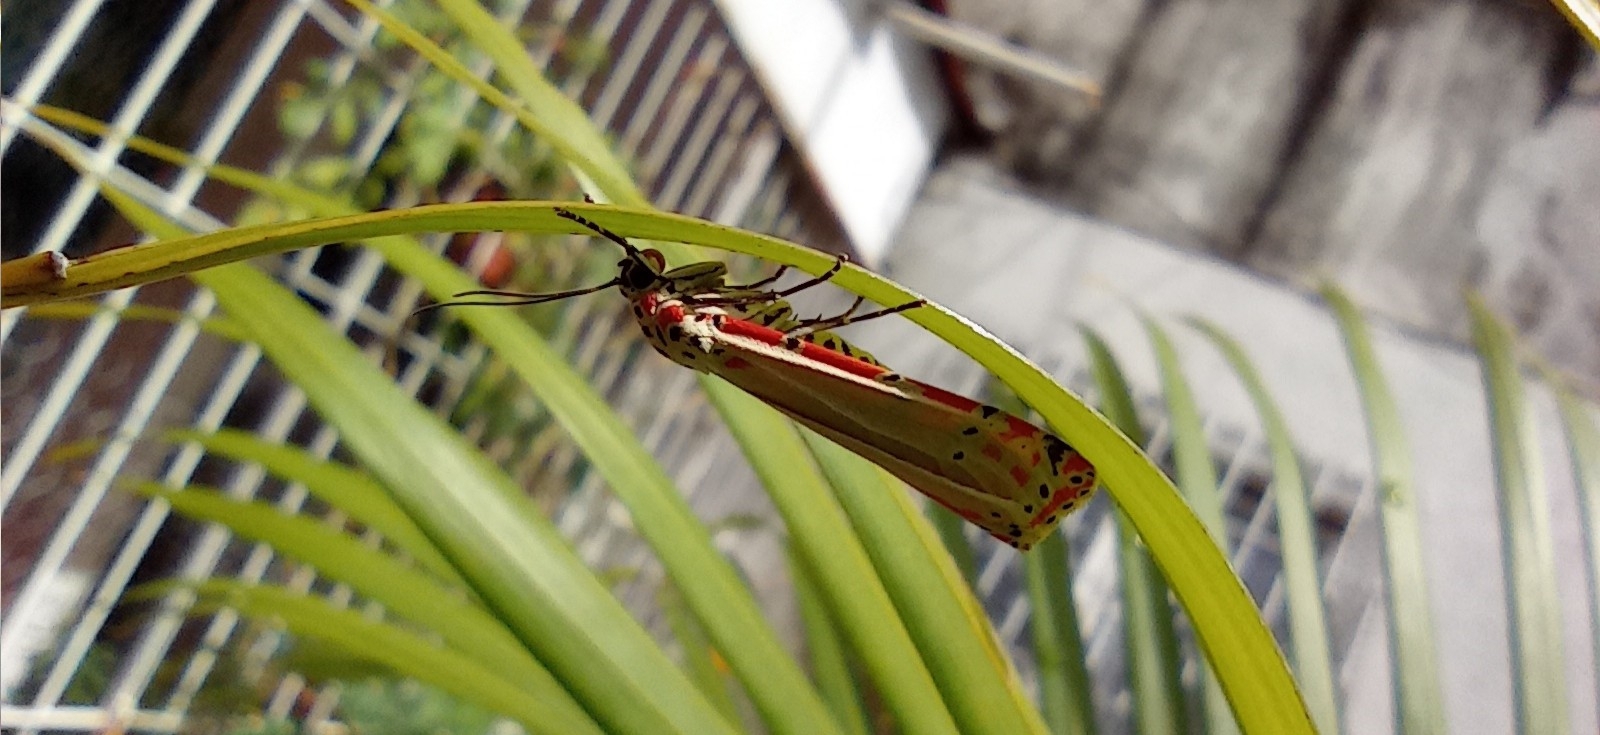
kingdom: Animalia
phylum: Arthropoda
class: Insecta
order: Lepidoptera
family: Erebidae
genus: Utetheisa
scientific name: Utetheisa ornatrix
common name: Beautiful utetheisa
